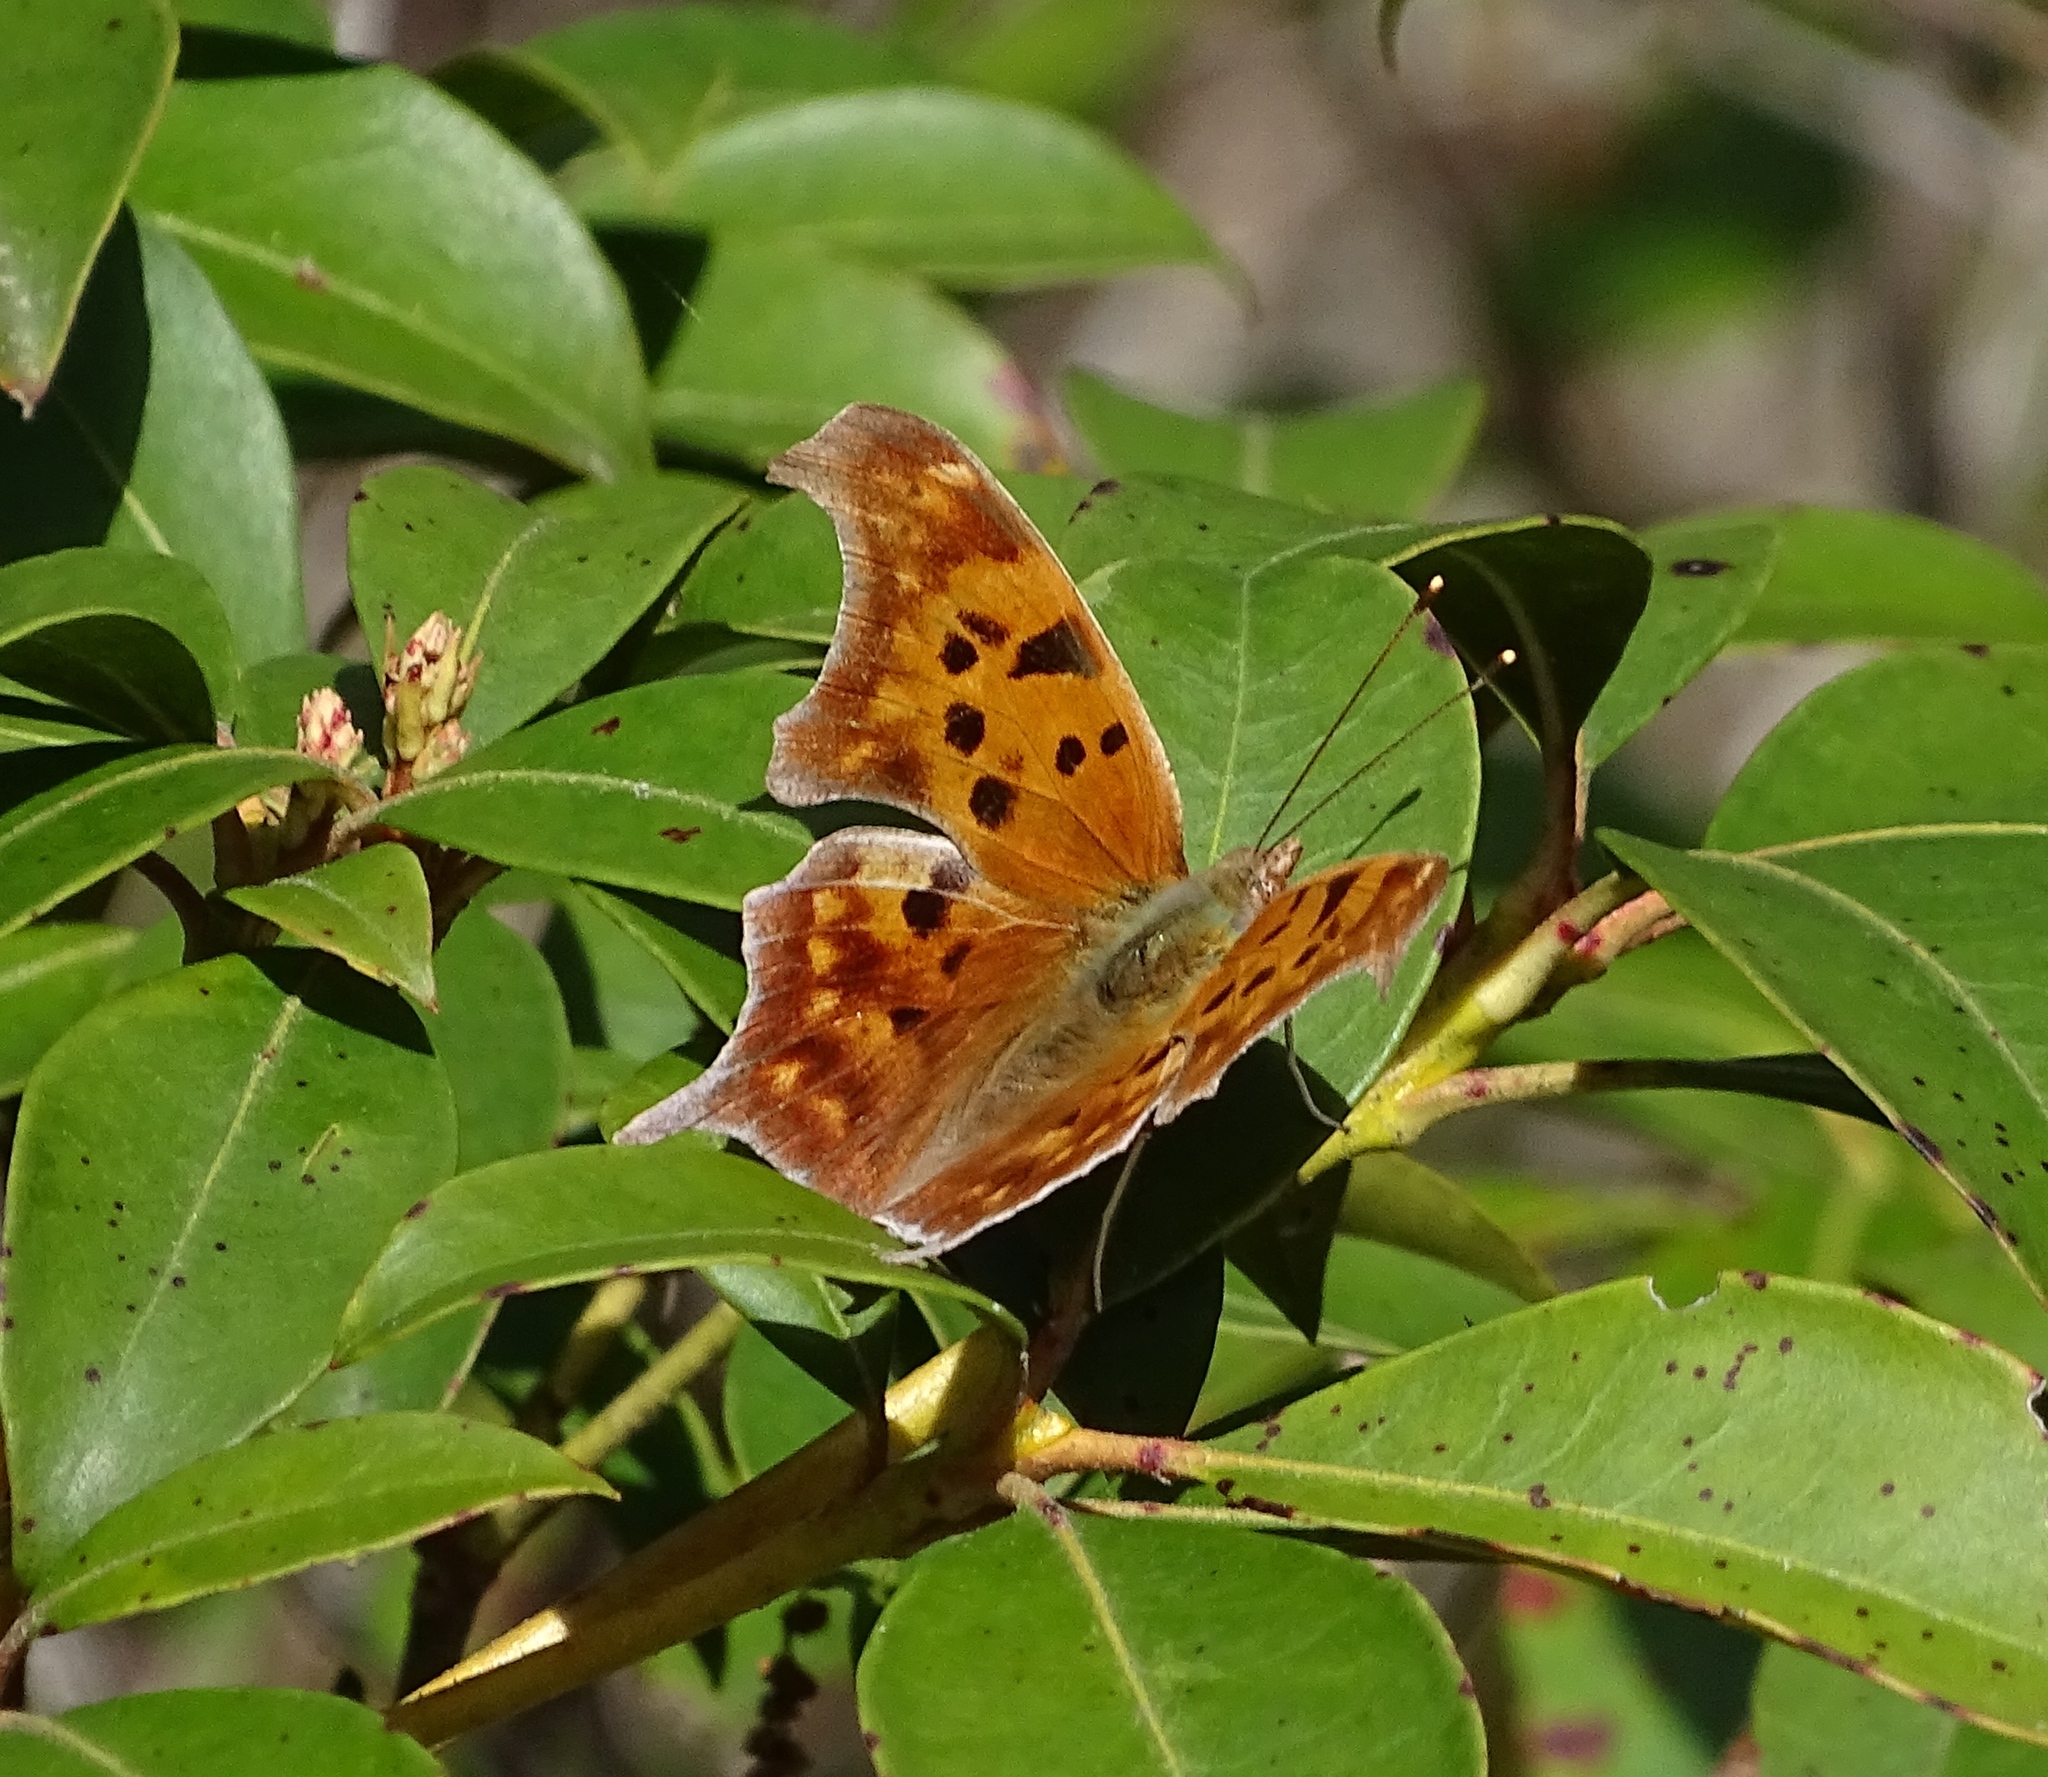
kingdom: Animalia
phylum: Arthropoda
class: Insecta
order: Lepidoptera
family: Nymphalidae
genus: Polygonia
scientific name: Polygonia interrogationis
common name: Question mark
